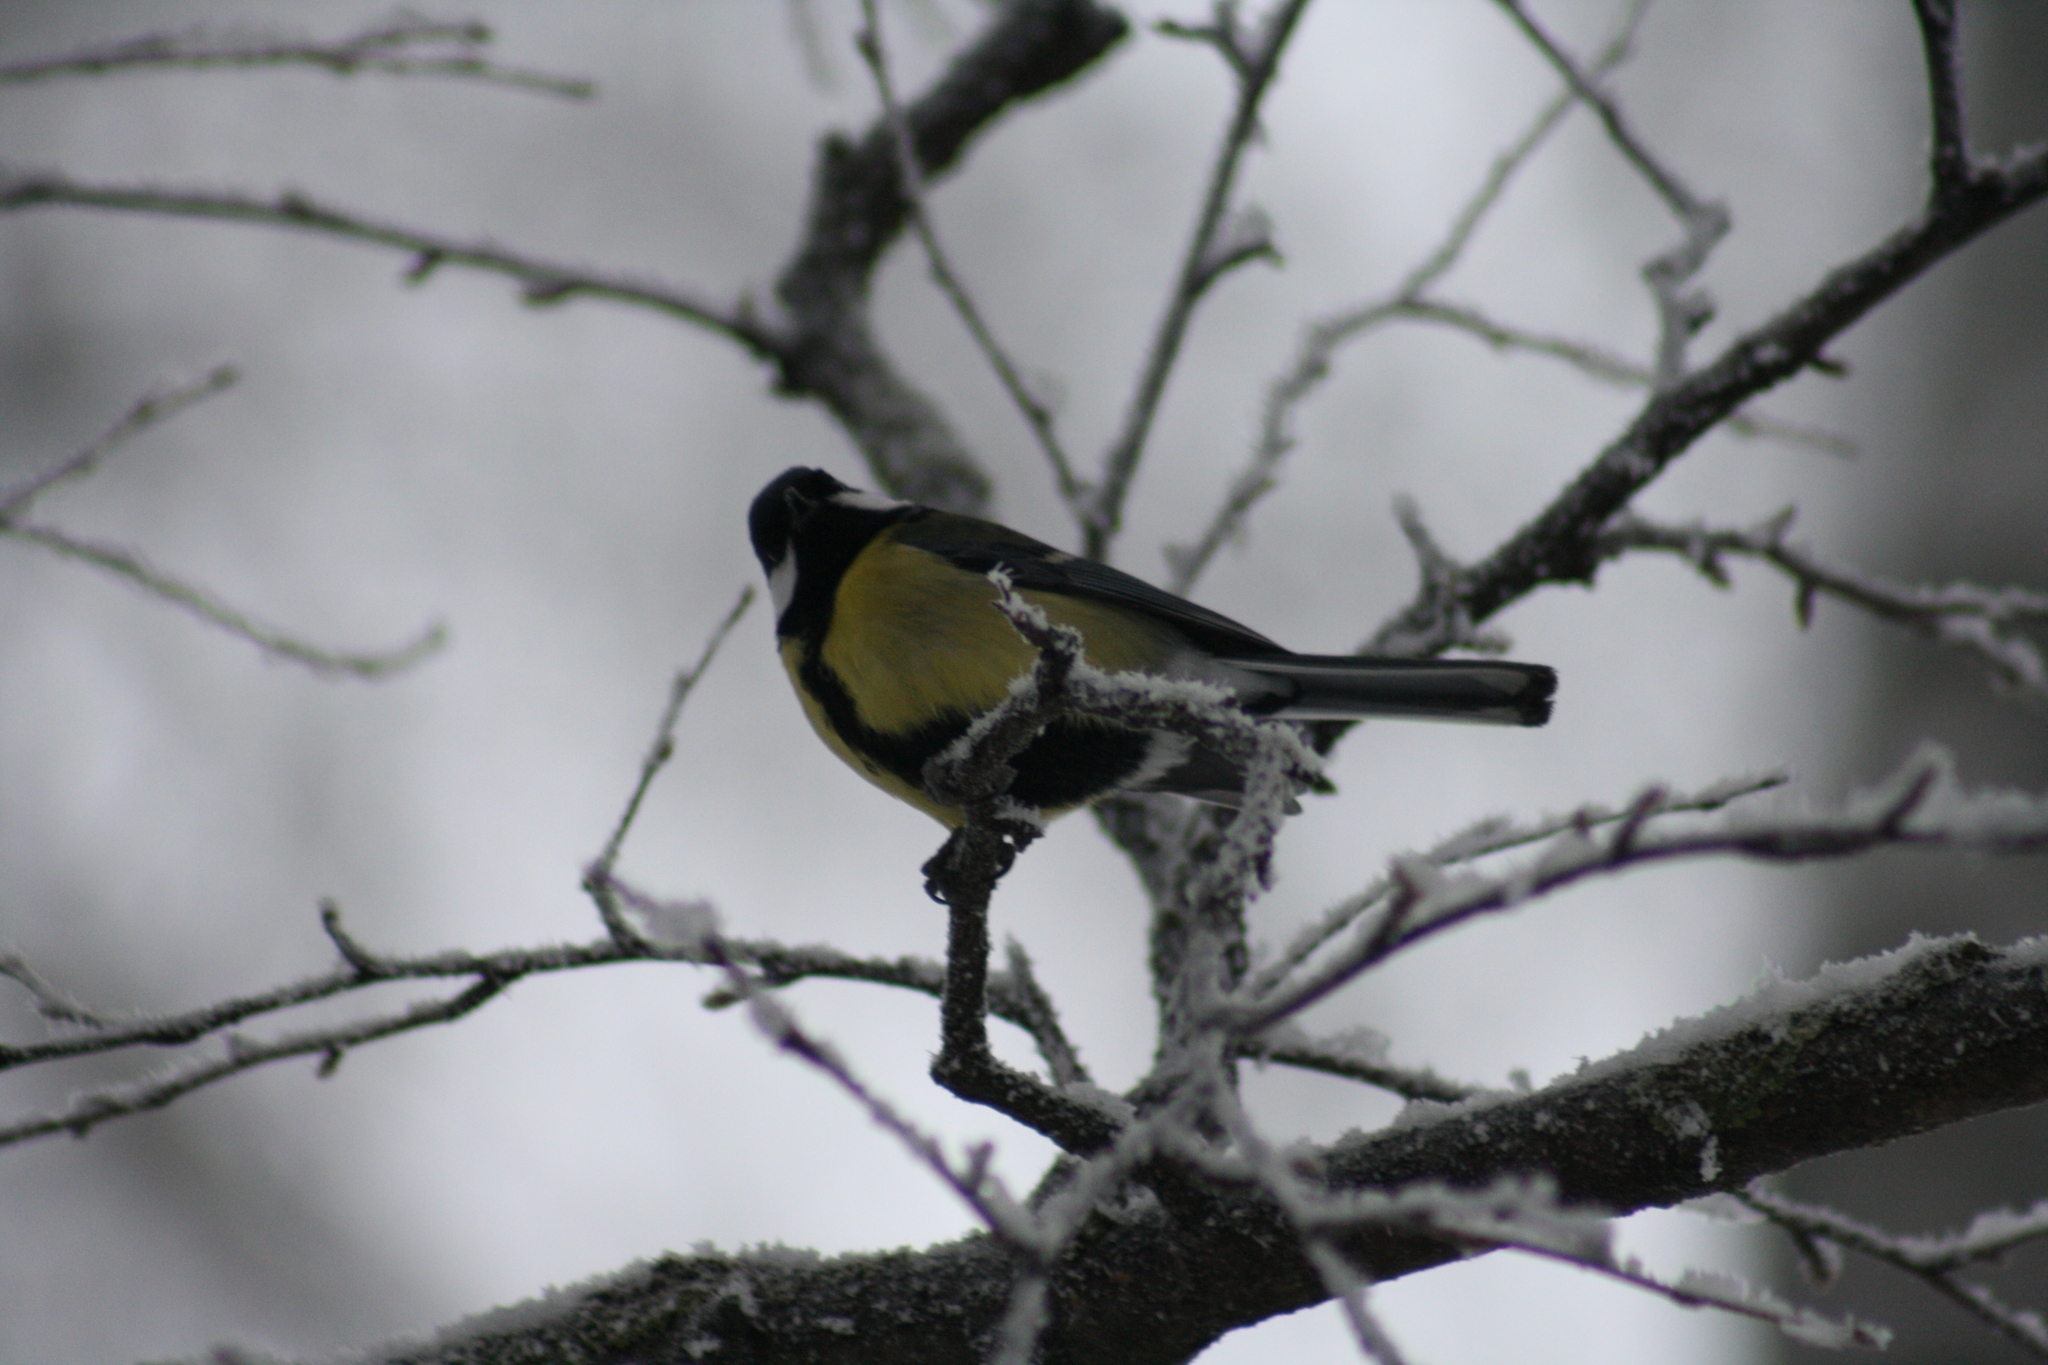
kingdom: Animalia
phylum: Chordata
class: Aves
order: Passeriformes
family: Paridae
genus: Parus
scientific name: Parus major
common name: Great tit
